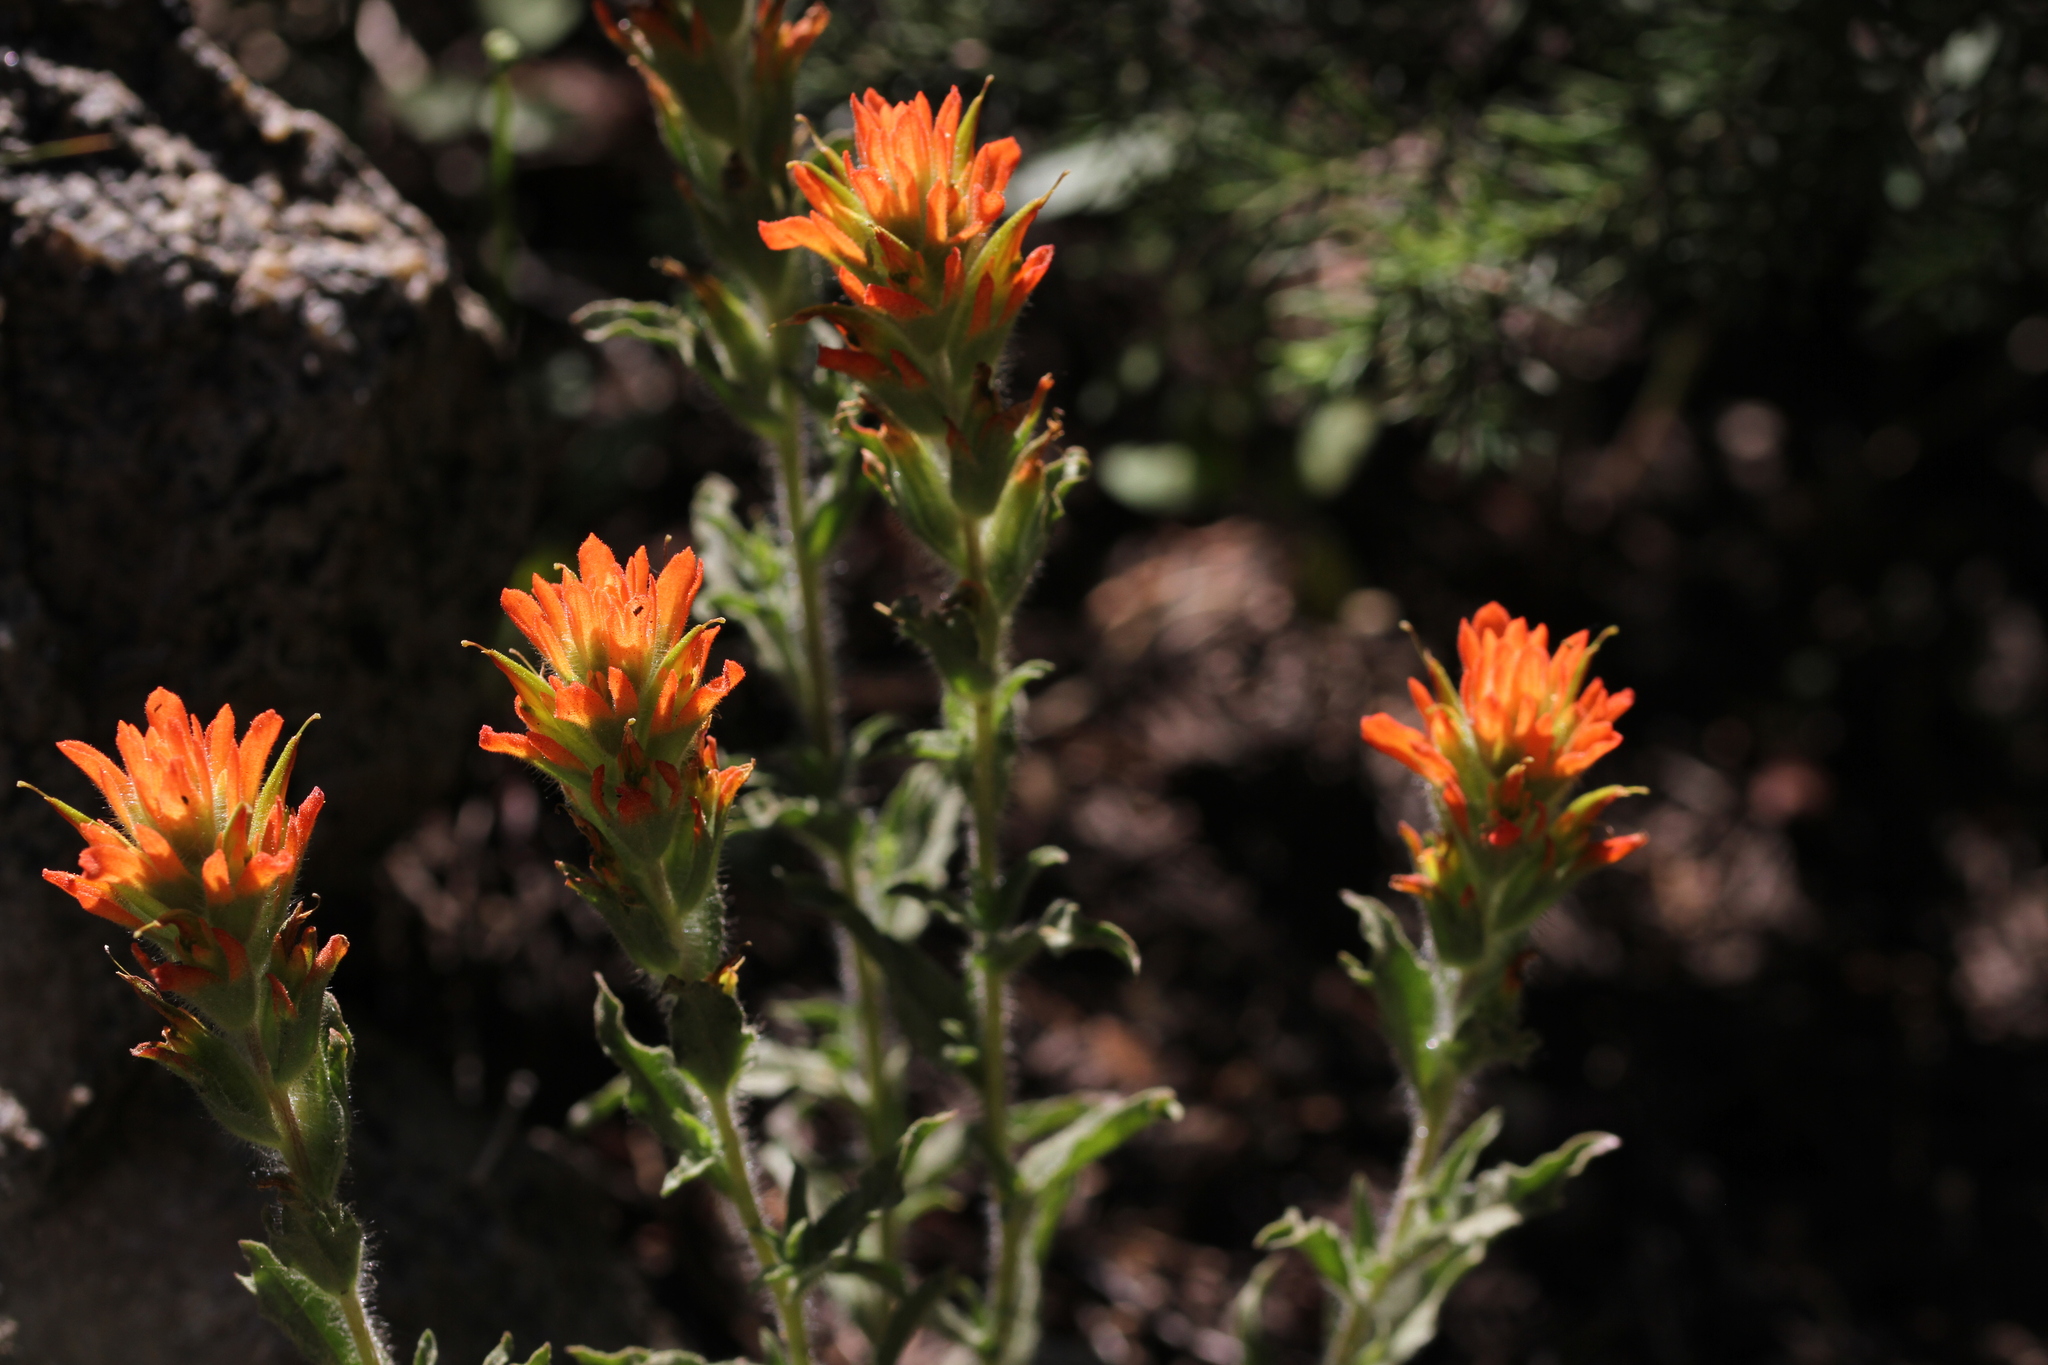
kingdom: Plantae
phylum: Tracheophyta
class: Magnoliopsida
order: Lamiales
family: Orobanchaceae
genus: Castilleja
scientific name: Castilleja applegatei
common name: Wavy-leaf paintbrush
